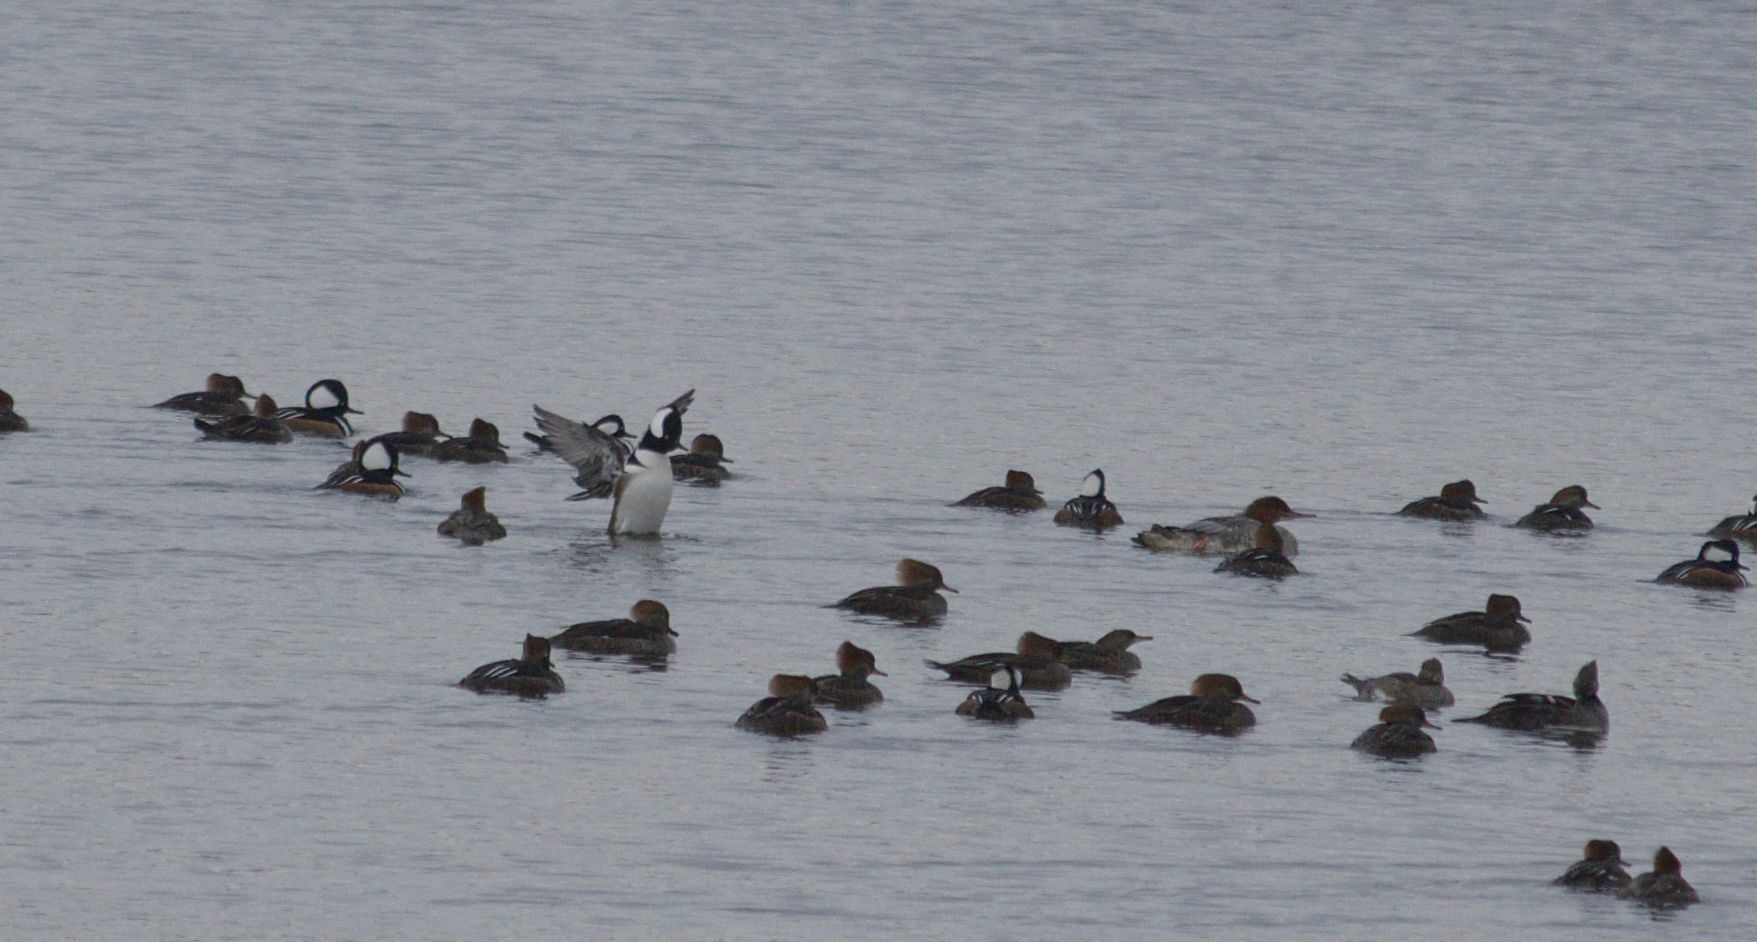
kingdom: Animalia
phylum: Chordata
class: Aves
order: Anseriformes
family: Anatidae
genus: Lophodytes
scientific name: Lophodytes cucullatus
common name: Hooded merganser
